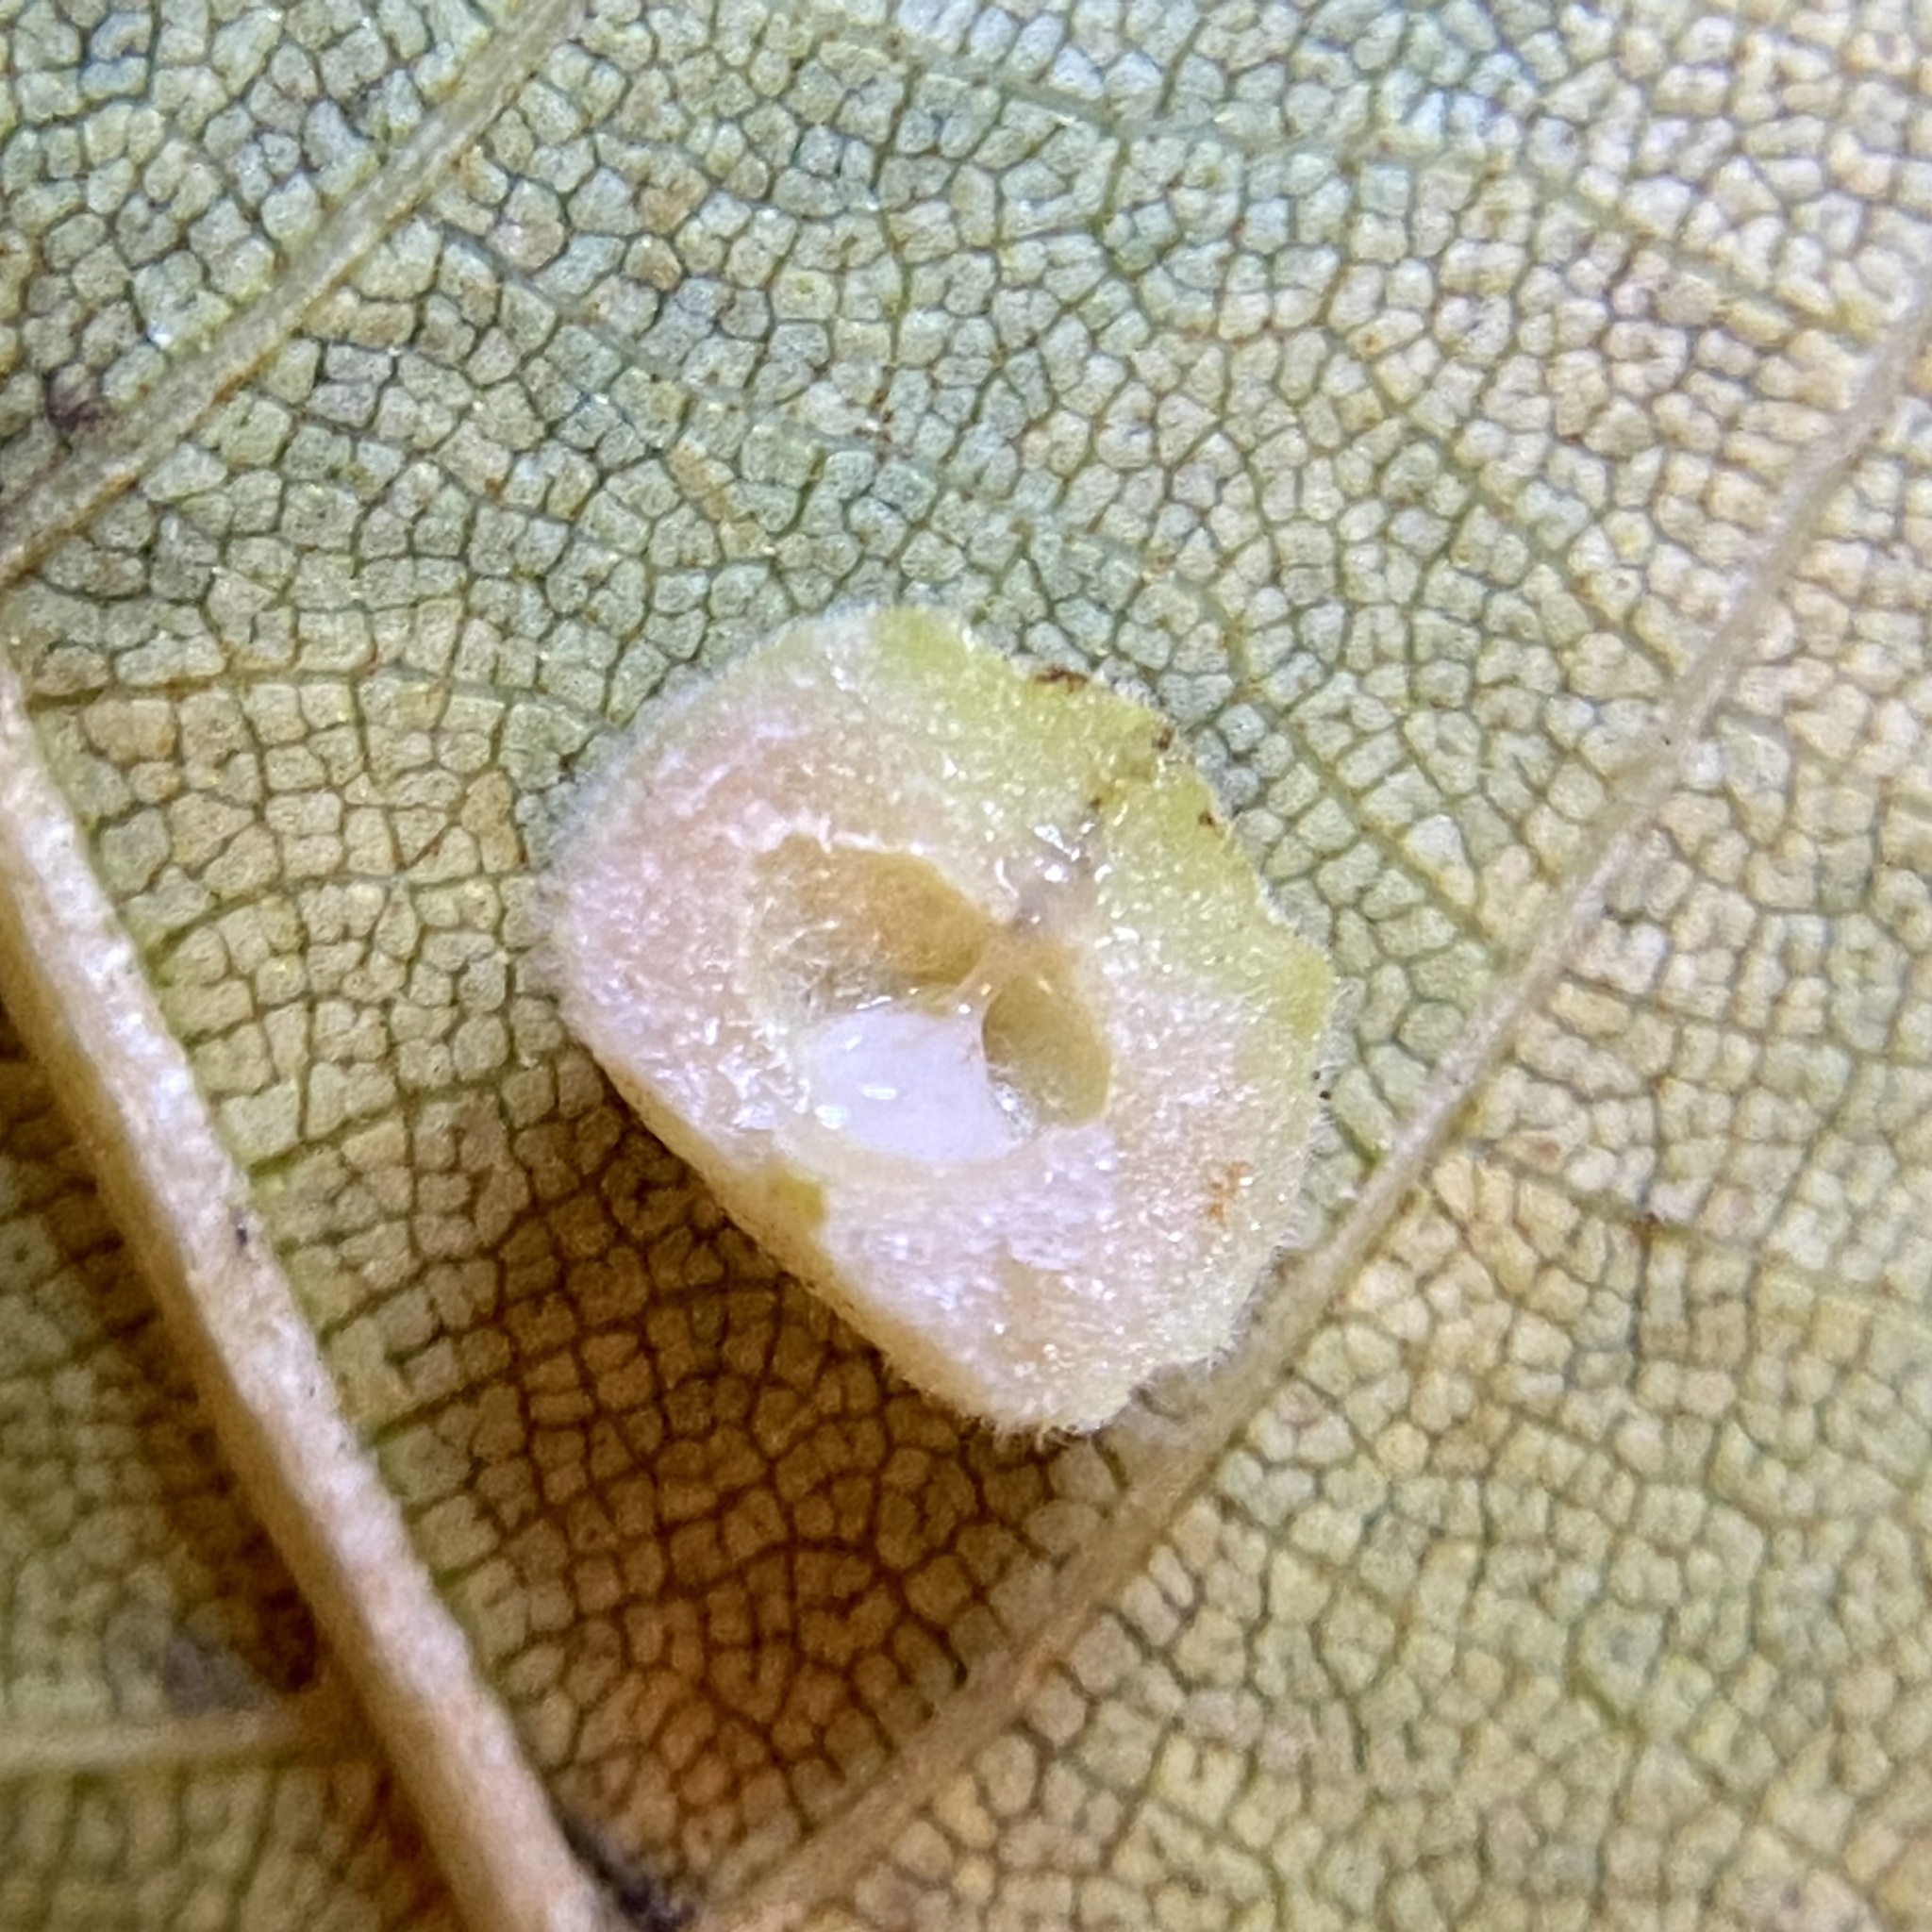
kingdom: Animalia
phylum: Arthropoda
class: Insecta
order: Diptera
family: Cecidomyiidae
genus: Caryomyia
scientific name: Caryomyia persicoides
